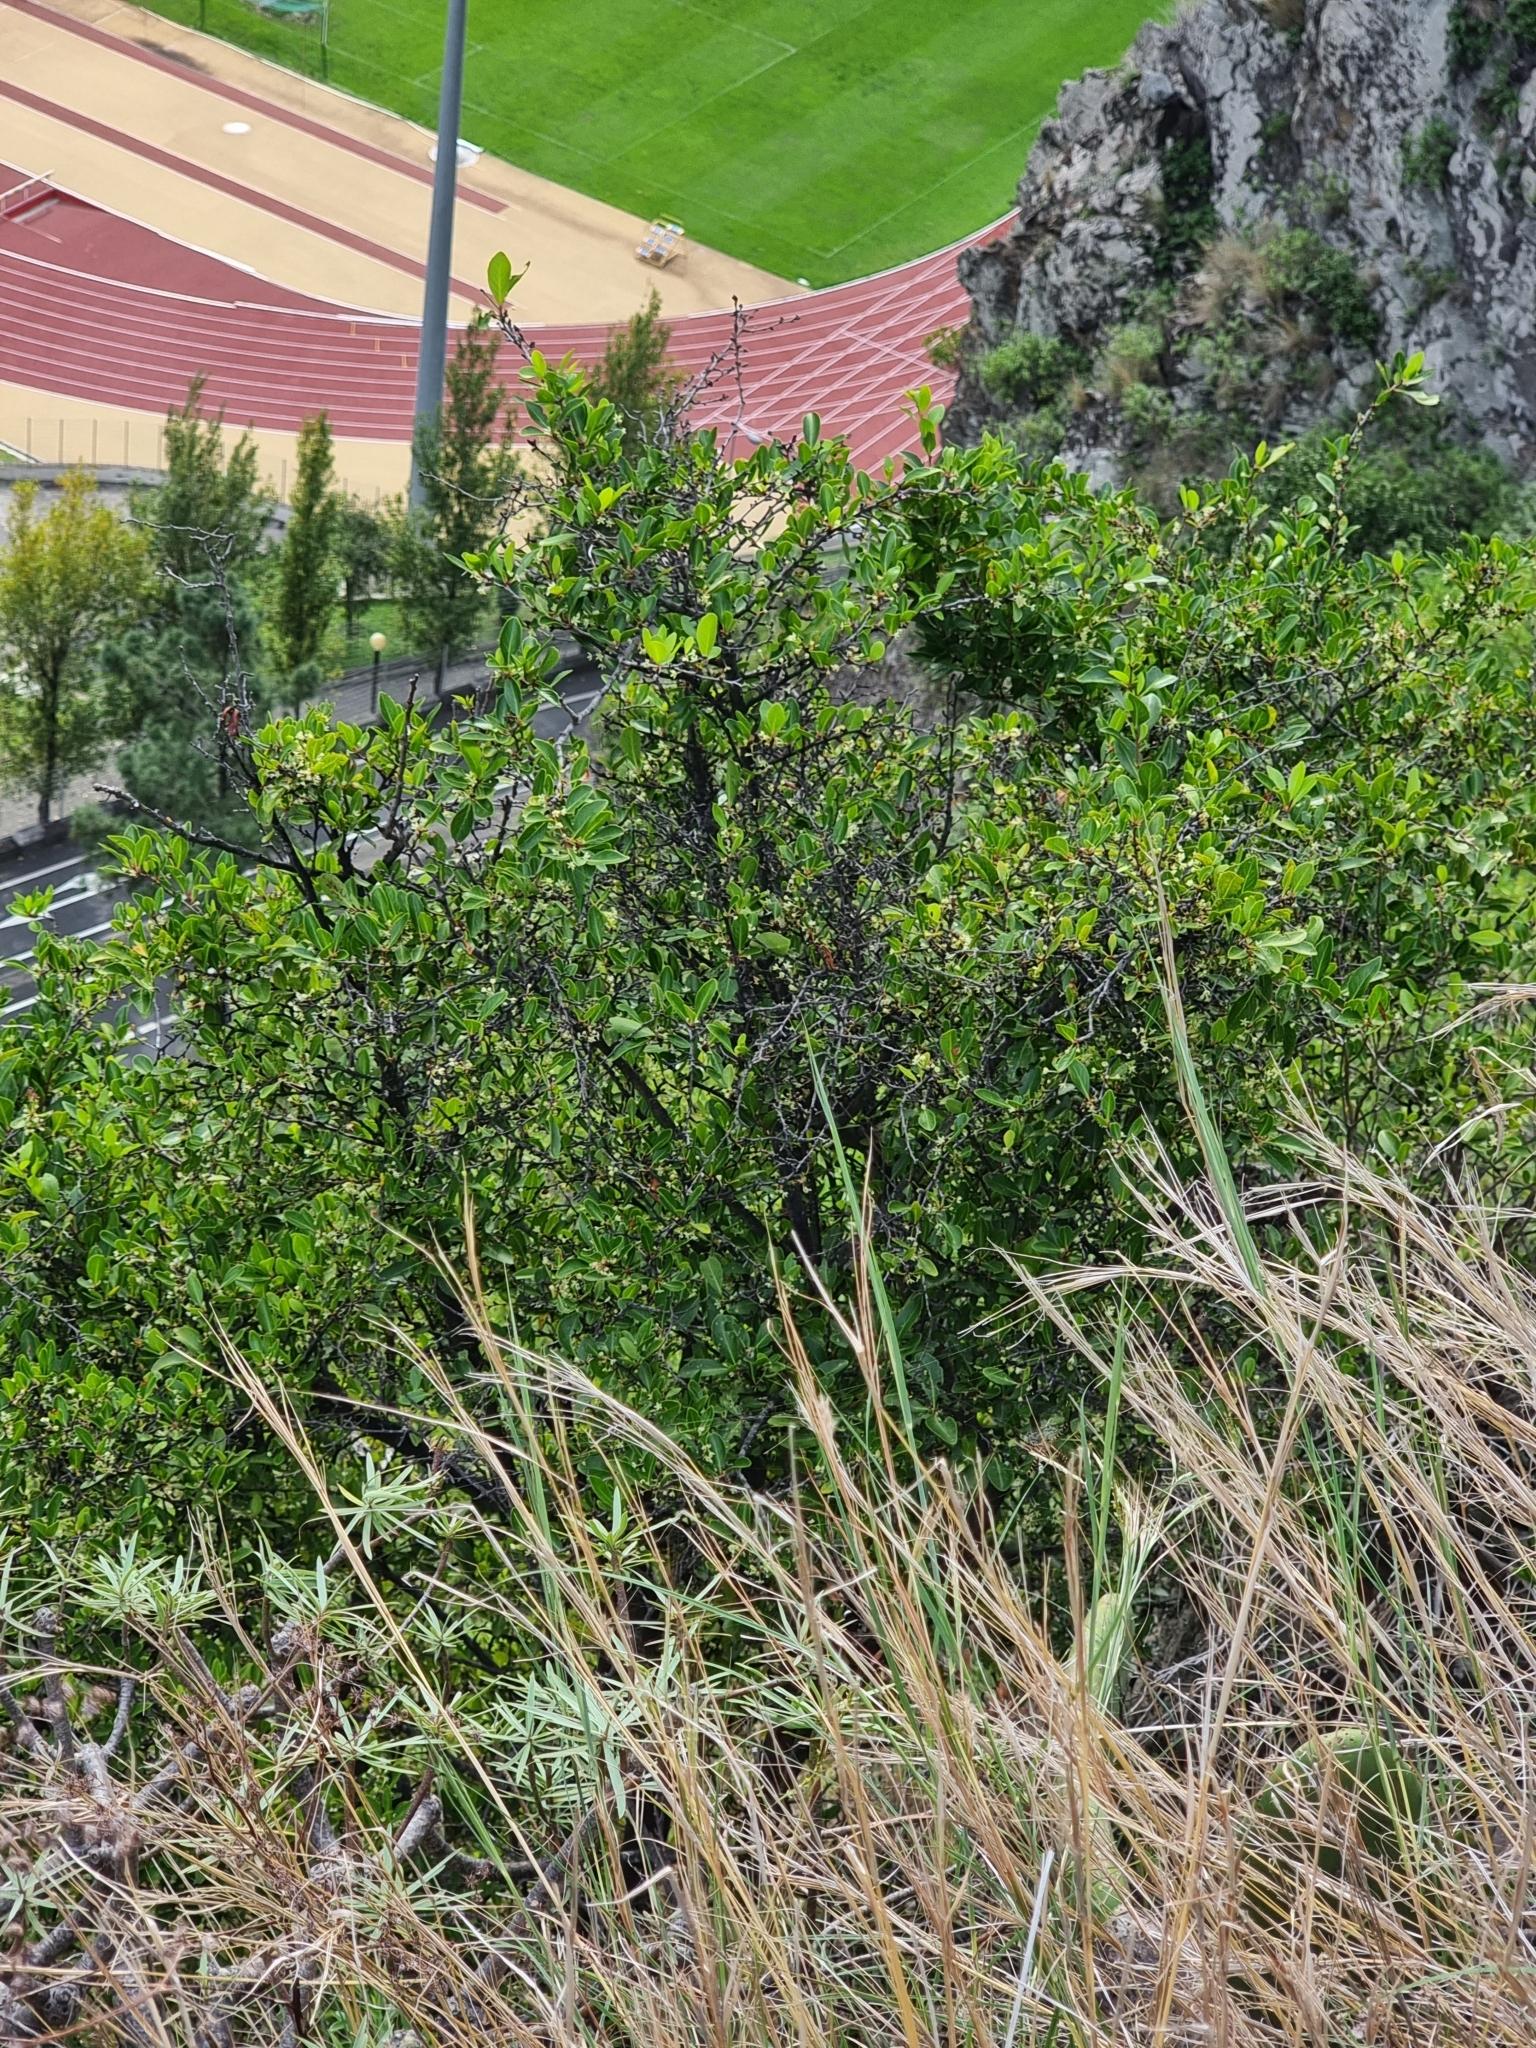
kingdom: Plantae
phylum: Tracheophyta
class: Magnoliopsida
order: Celastrales
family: Celastraceae
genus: Gymnosporia
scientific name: Gymnosporia dryandri
